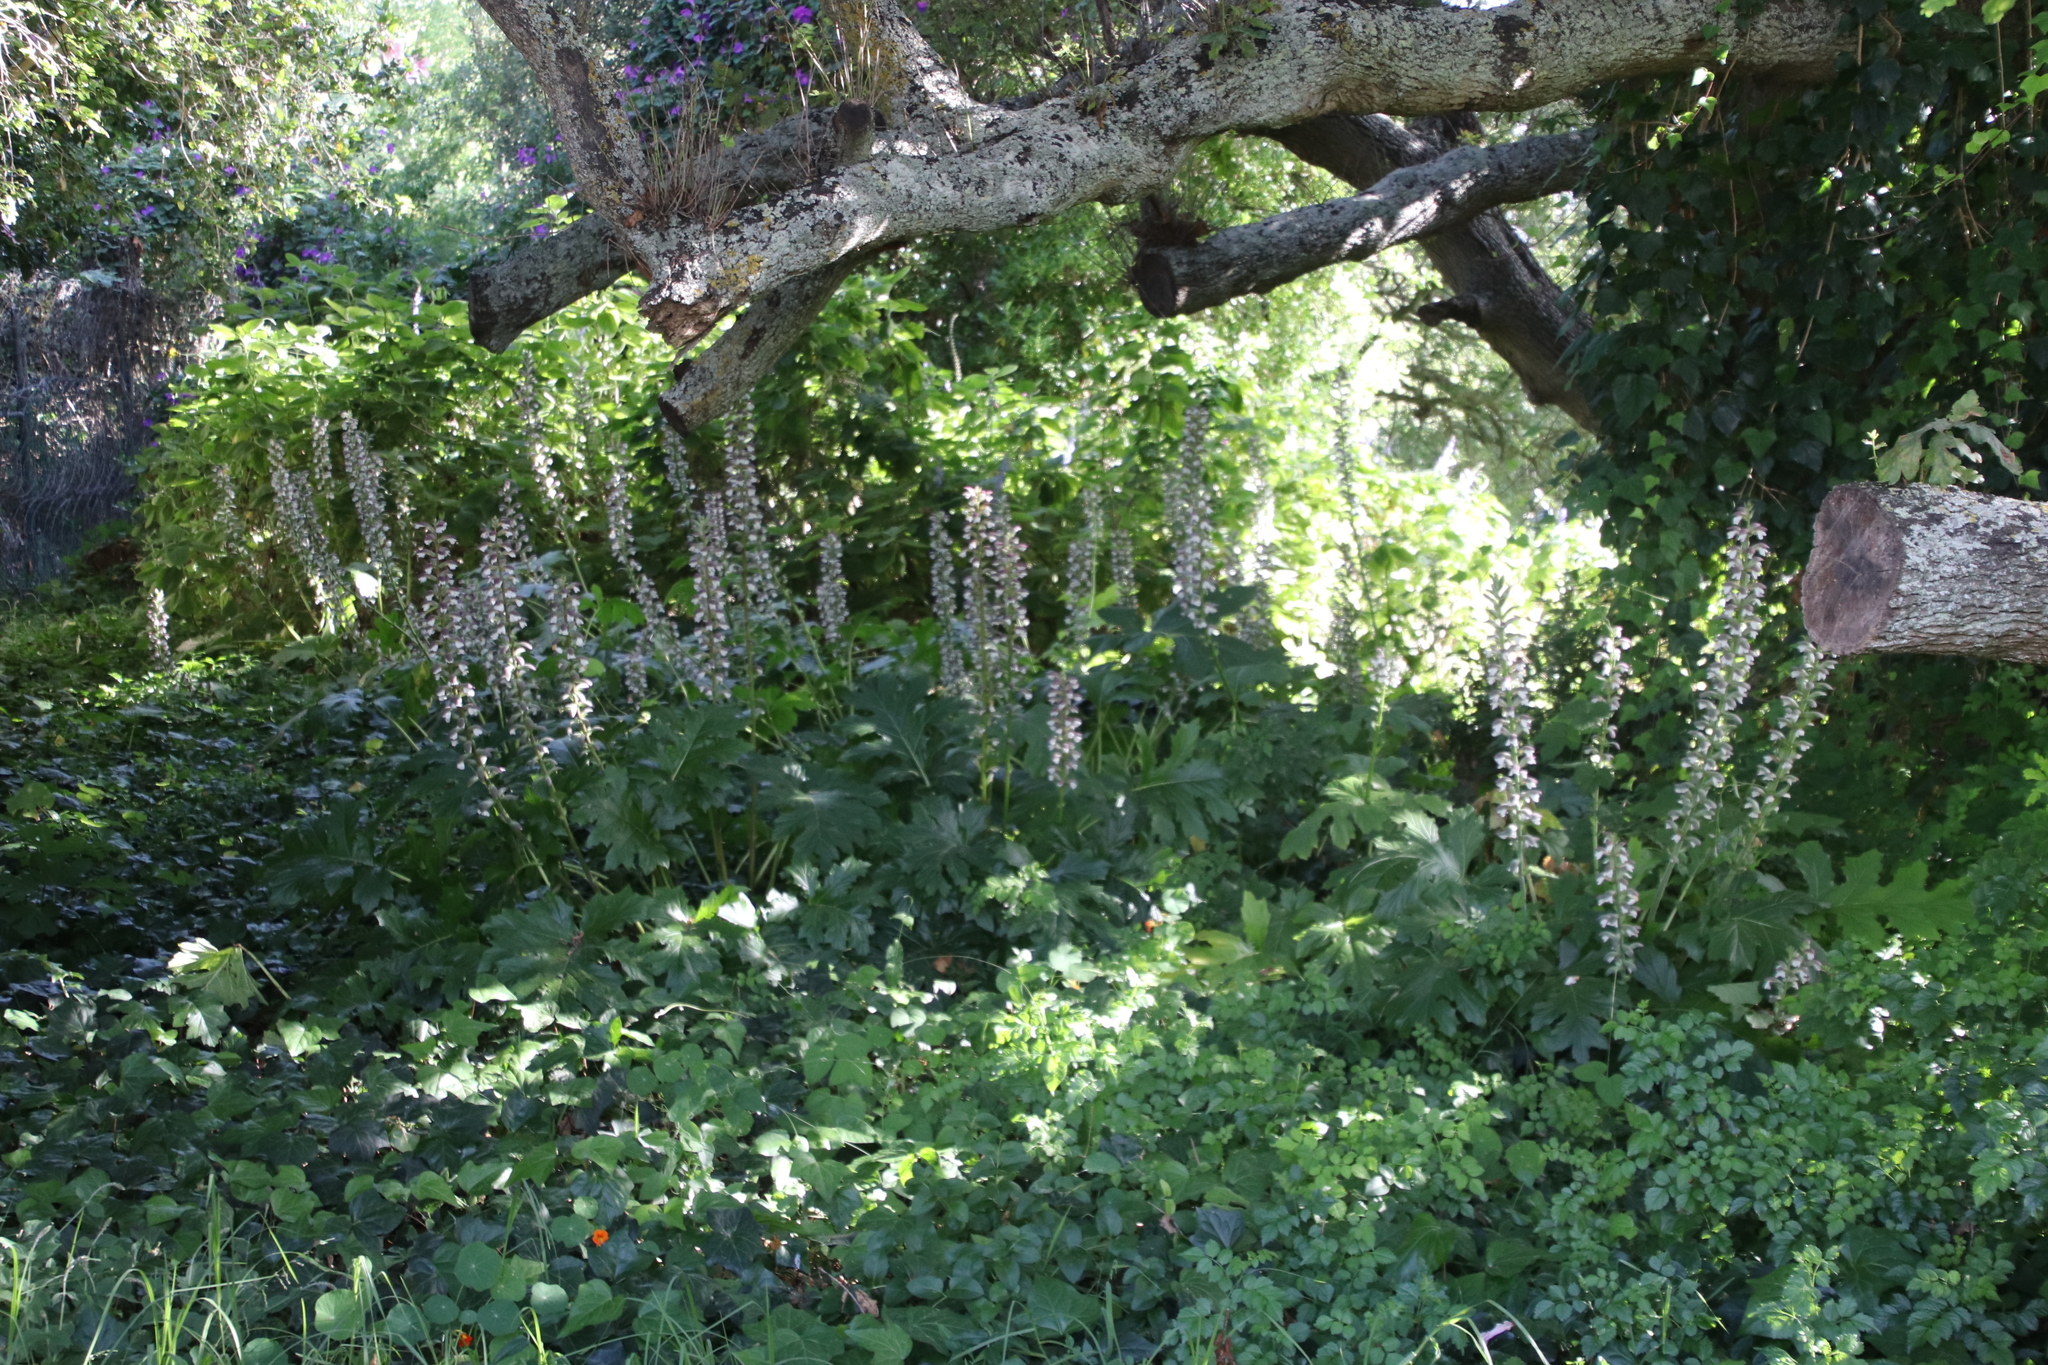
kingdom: Plantae
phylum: Tracheophyta
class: Magnoliopsida
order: Lamiales
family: Acanthaceae
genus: Acanthus
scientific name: Acanthus mollis
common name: Bear's-breech
